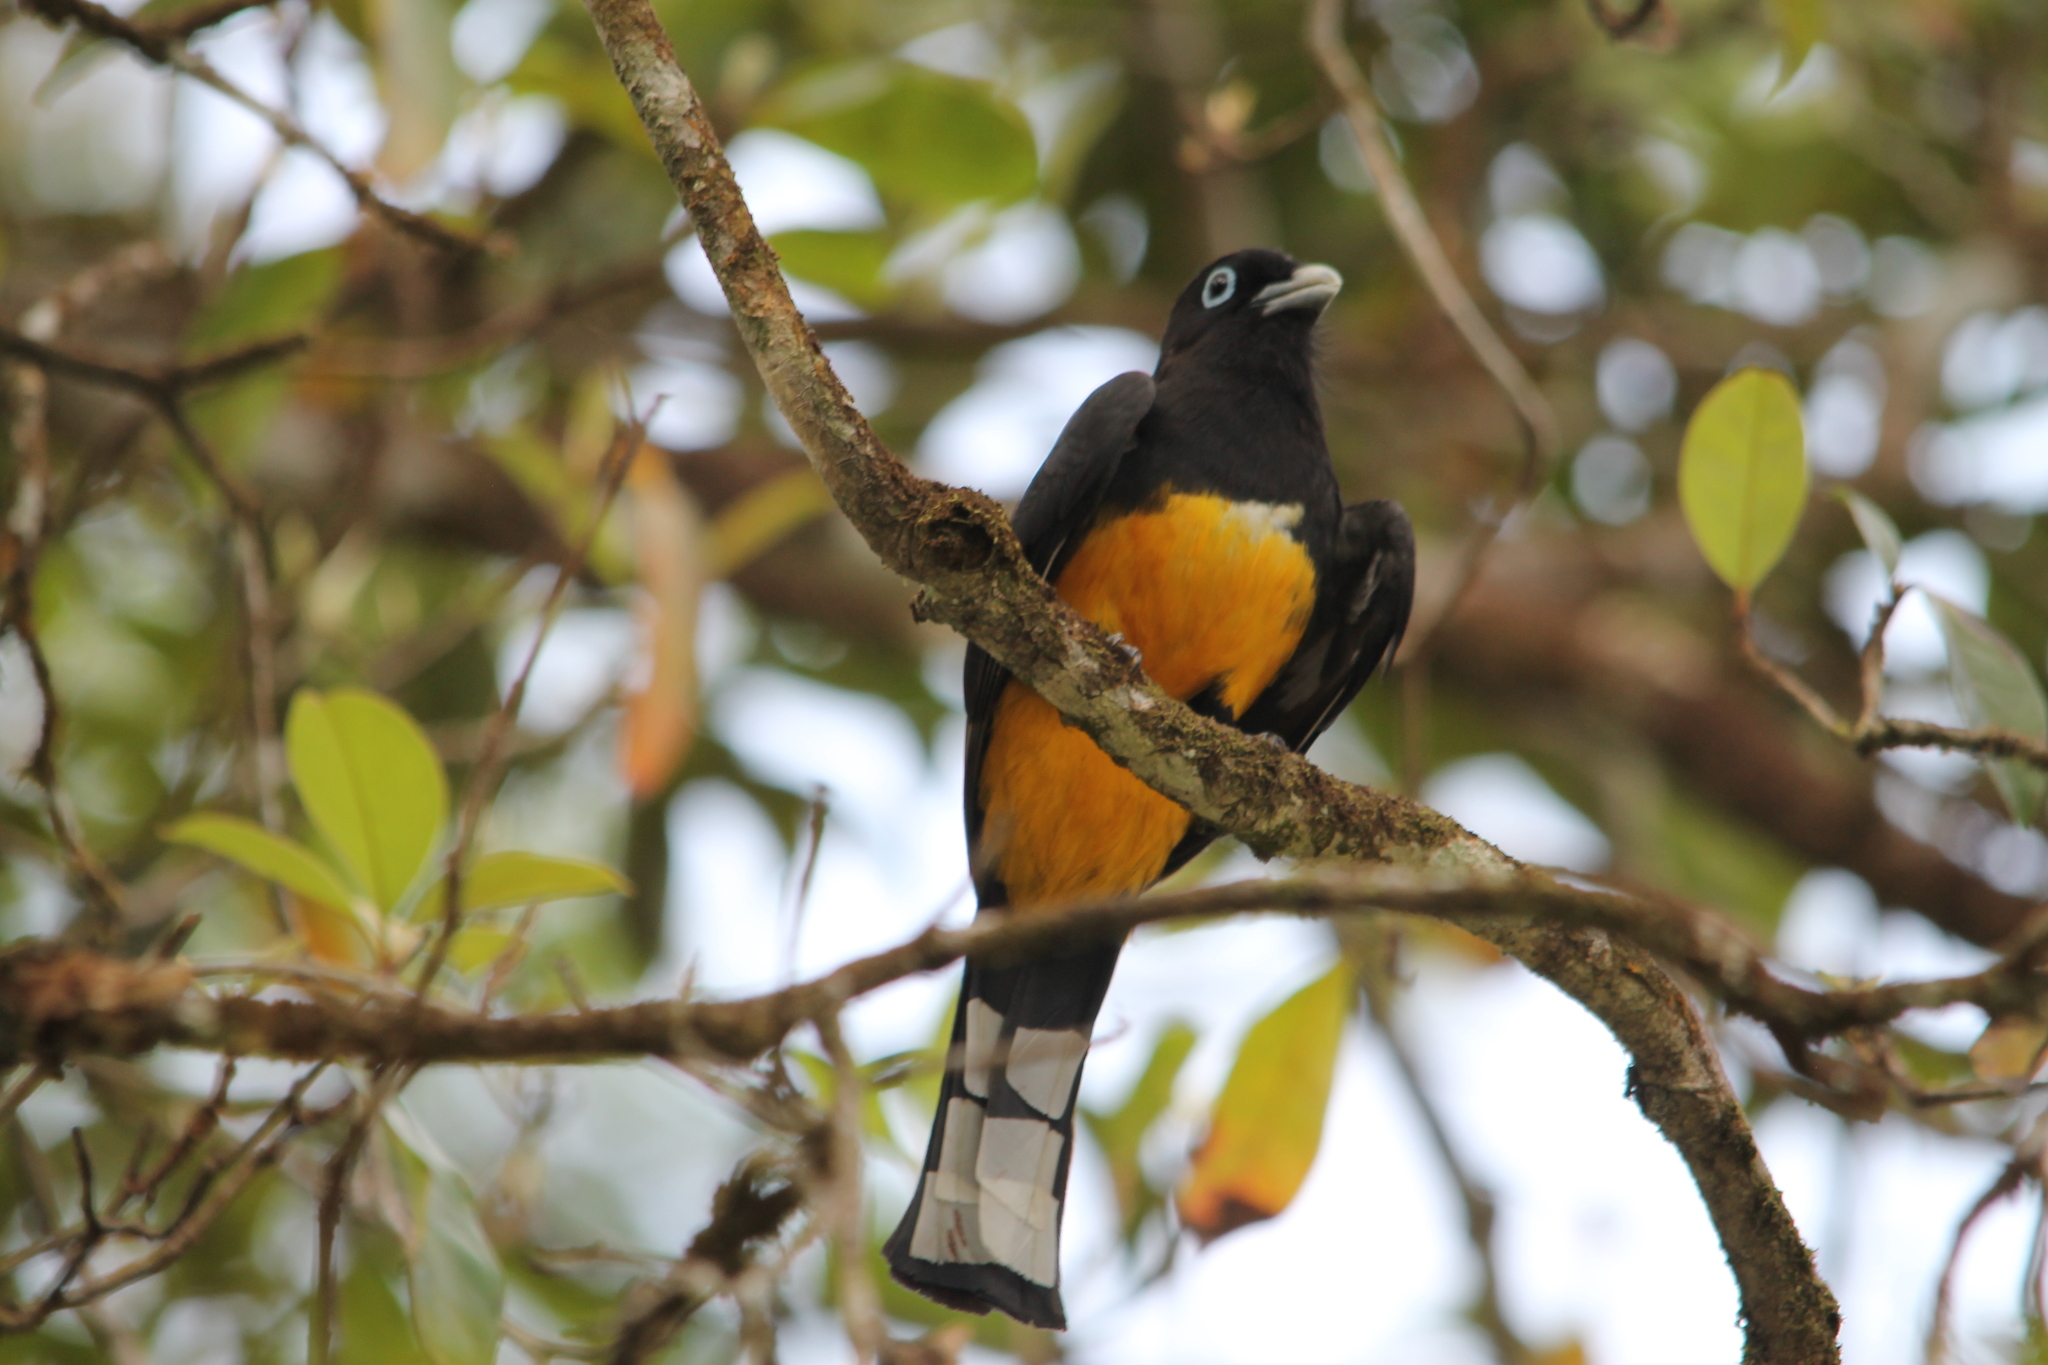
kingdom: Animalia
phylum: Chordata
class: Aves
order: Trogoniformes
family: Trogonidae
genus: Trogon
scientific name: Trogon melanocephalus
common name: Black-headed trogon
